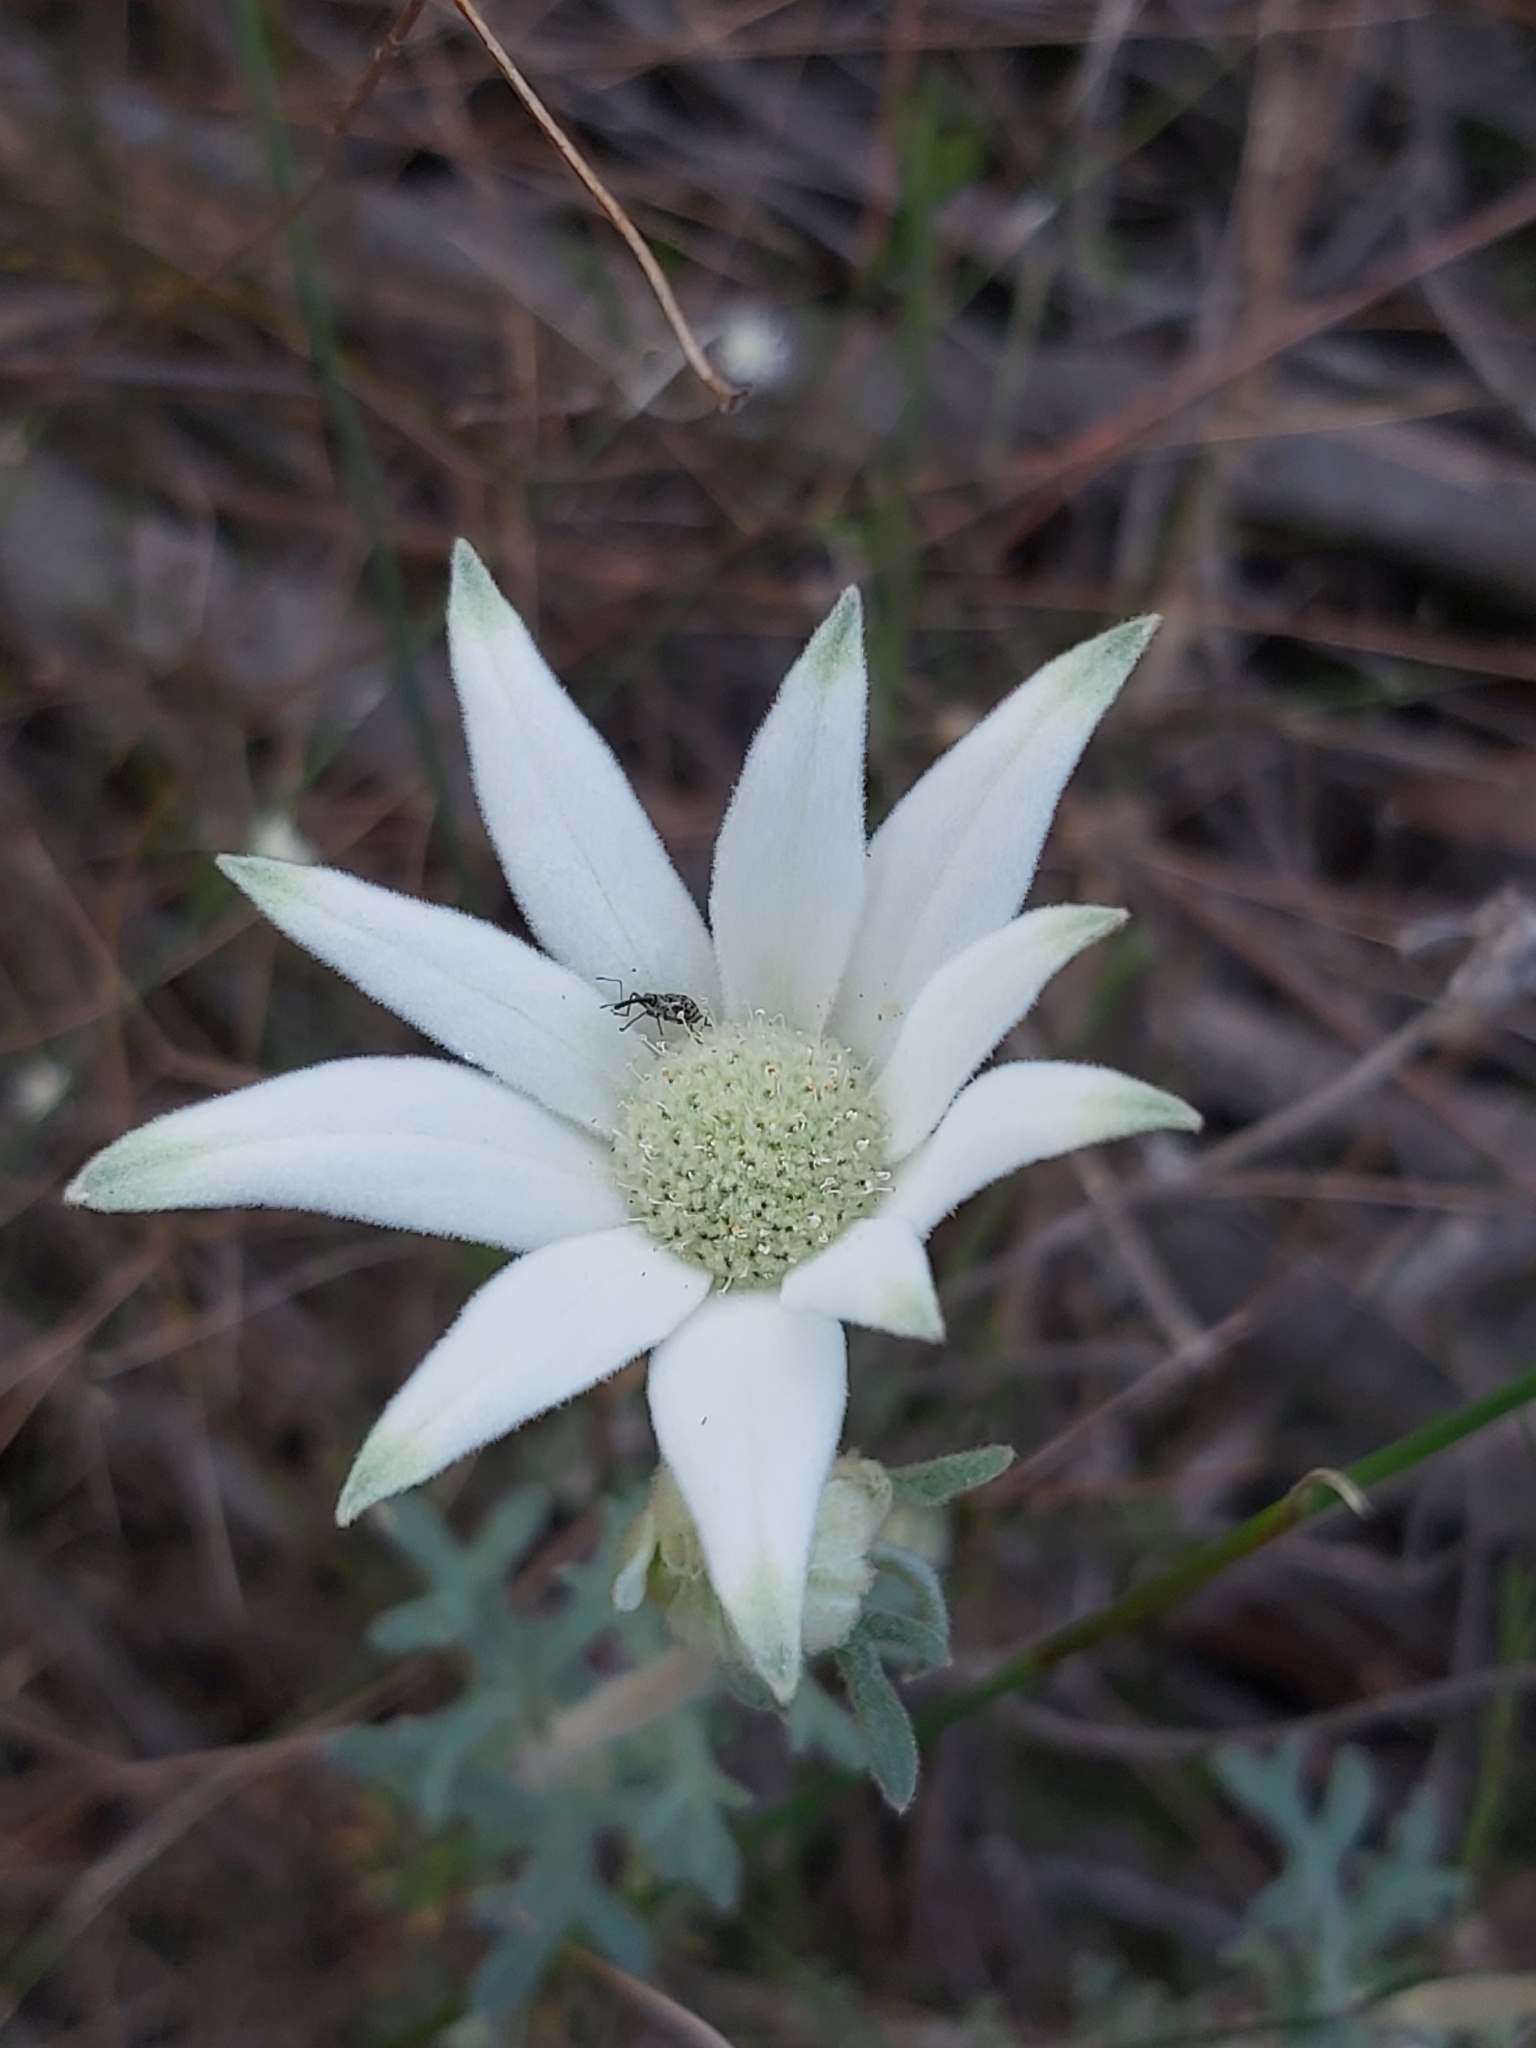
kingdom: Plantae
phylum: Tracheophyta
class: Magnoliopsida
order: Apiales
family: Apiaceae
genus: Actinotus
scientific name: Actinotus helianthi
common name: Flannel-flower
